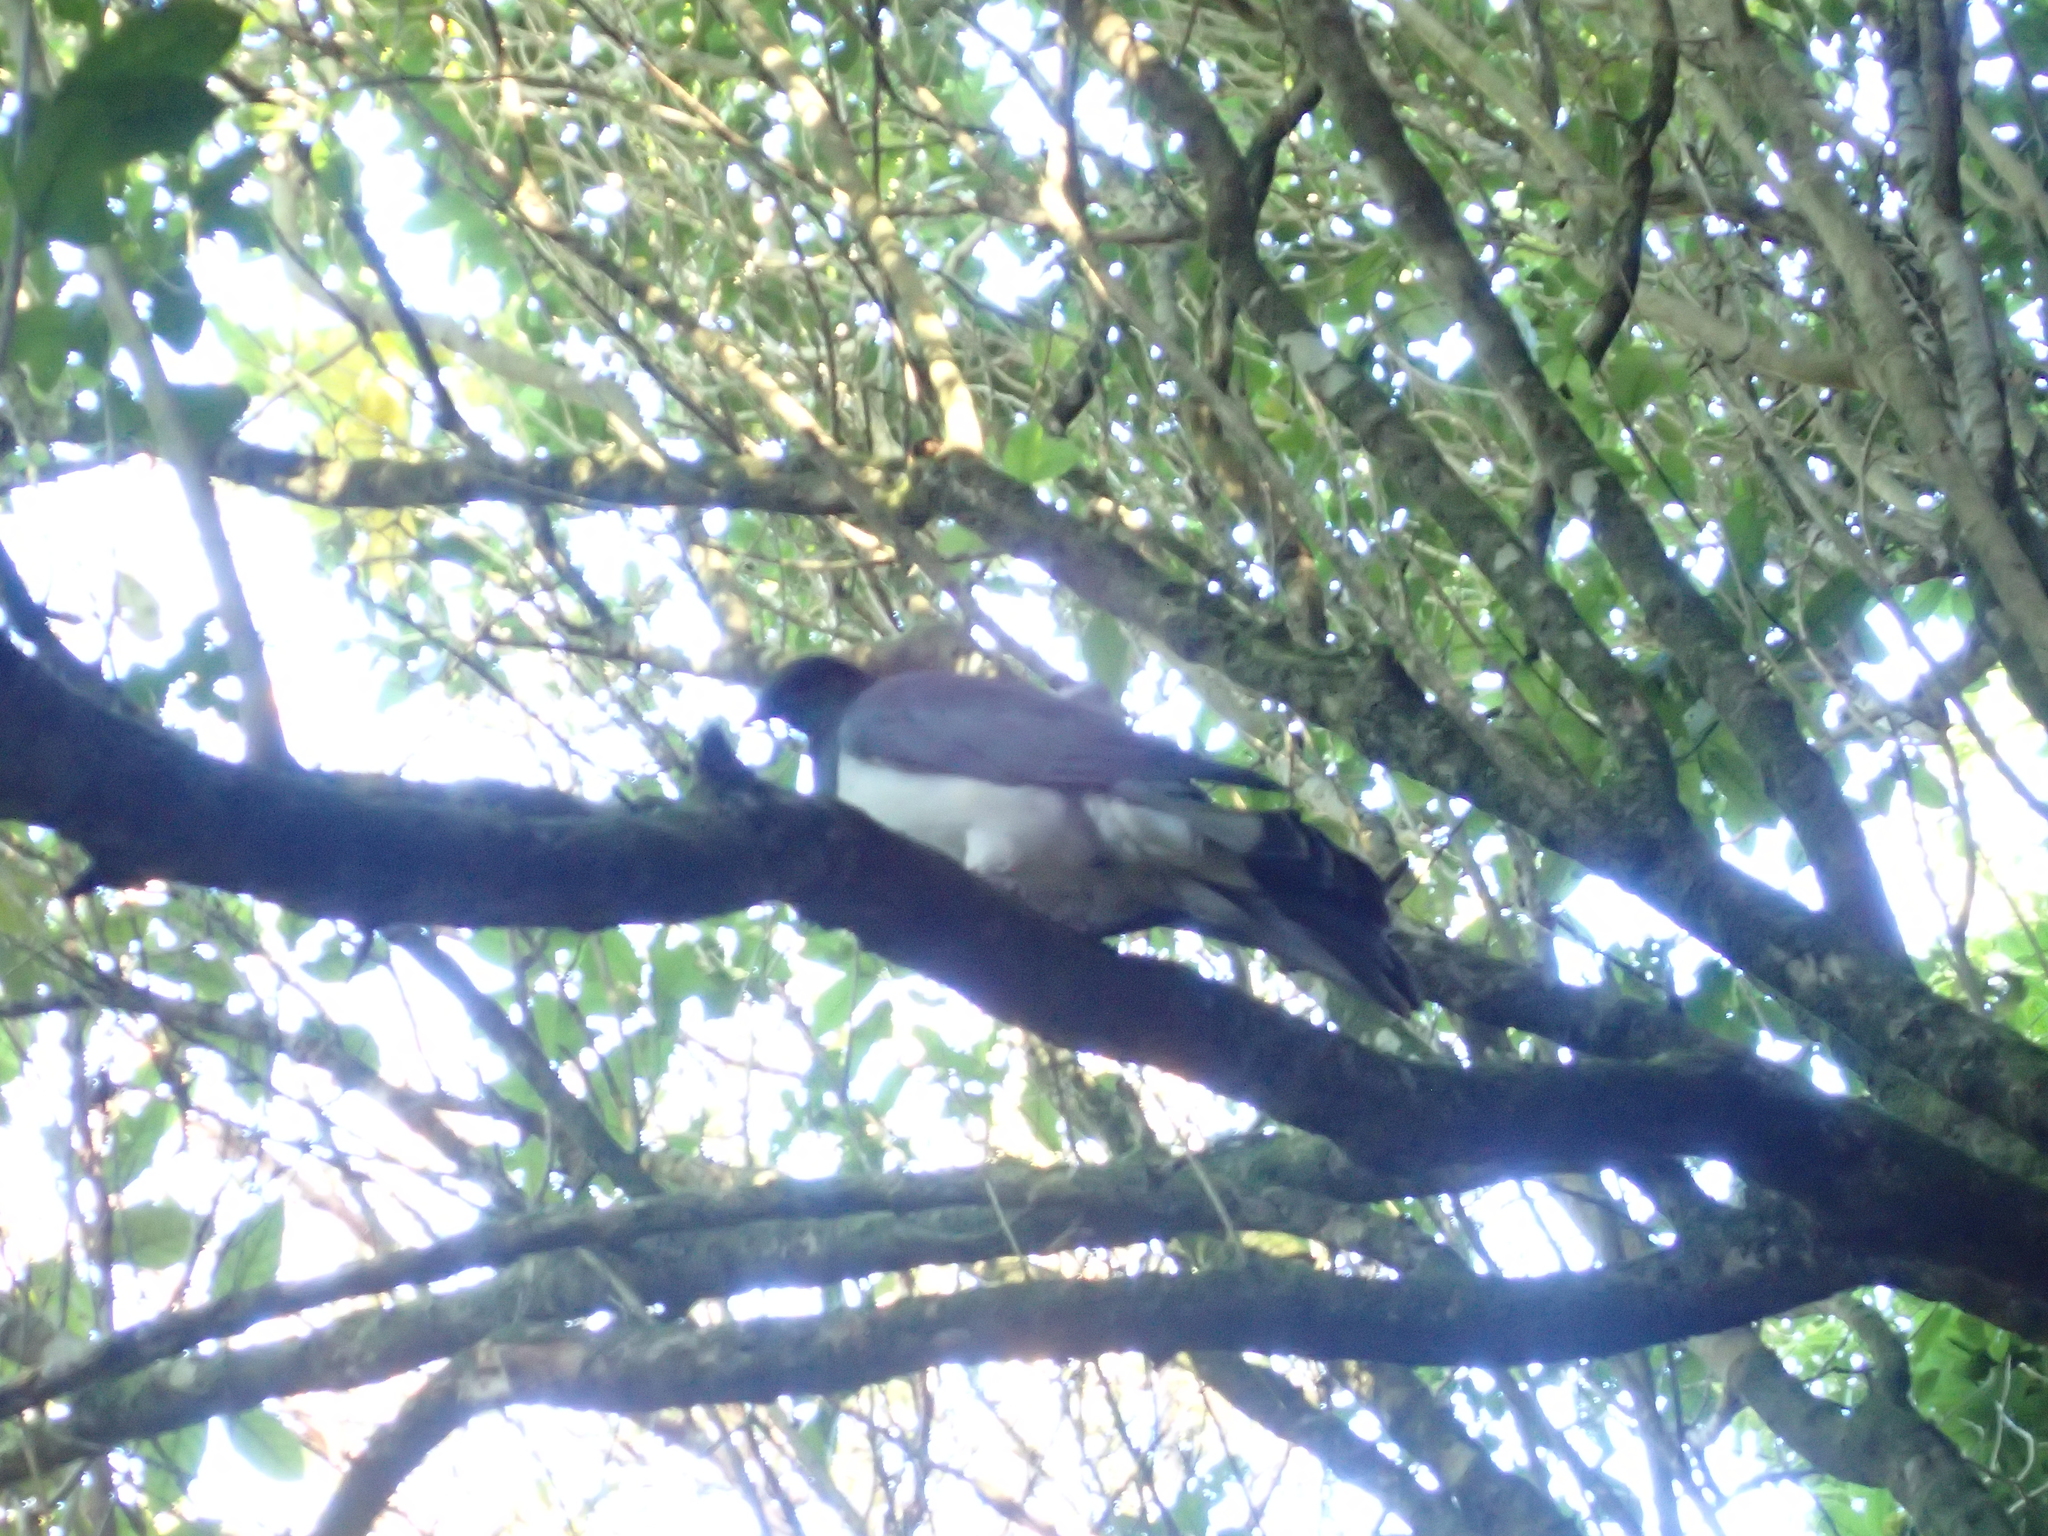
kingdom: Animalia
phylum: Chordata
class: Aves
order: Columbiformes
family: Columbidae
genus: Hemiphaga
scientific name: Hemiphaga novaeseelandiae
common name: New zealand pigeon
